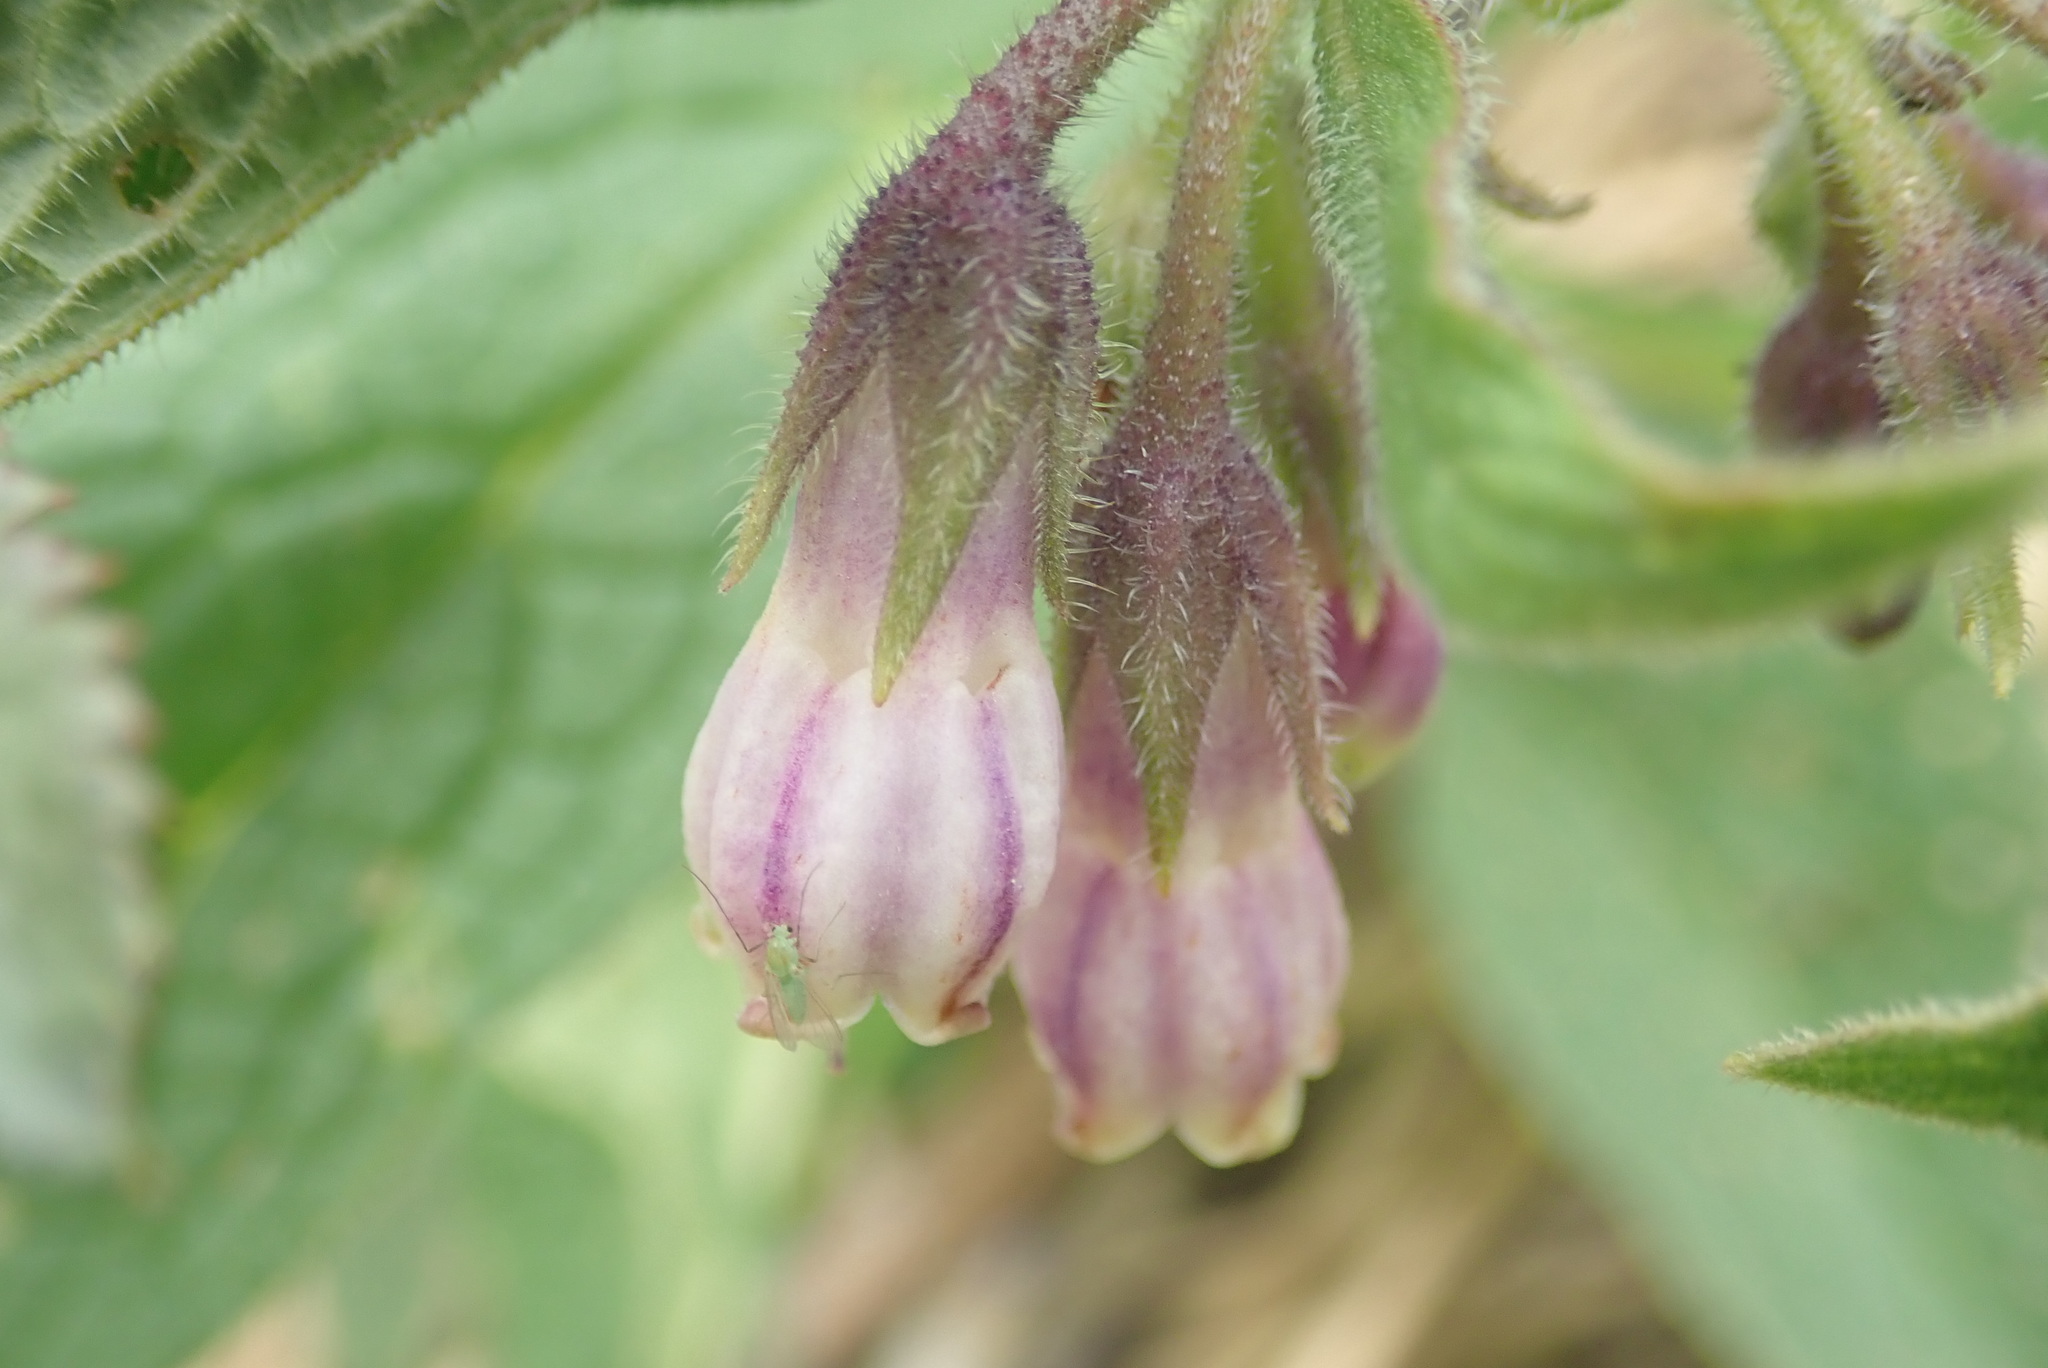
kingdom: Plantae
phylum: Tracheophyta
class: Magnoliopsida
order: Boraginales
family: Boraginaceae
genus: Symphytum
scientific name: Symphytum officinale
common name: Common comfrey
